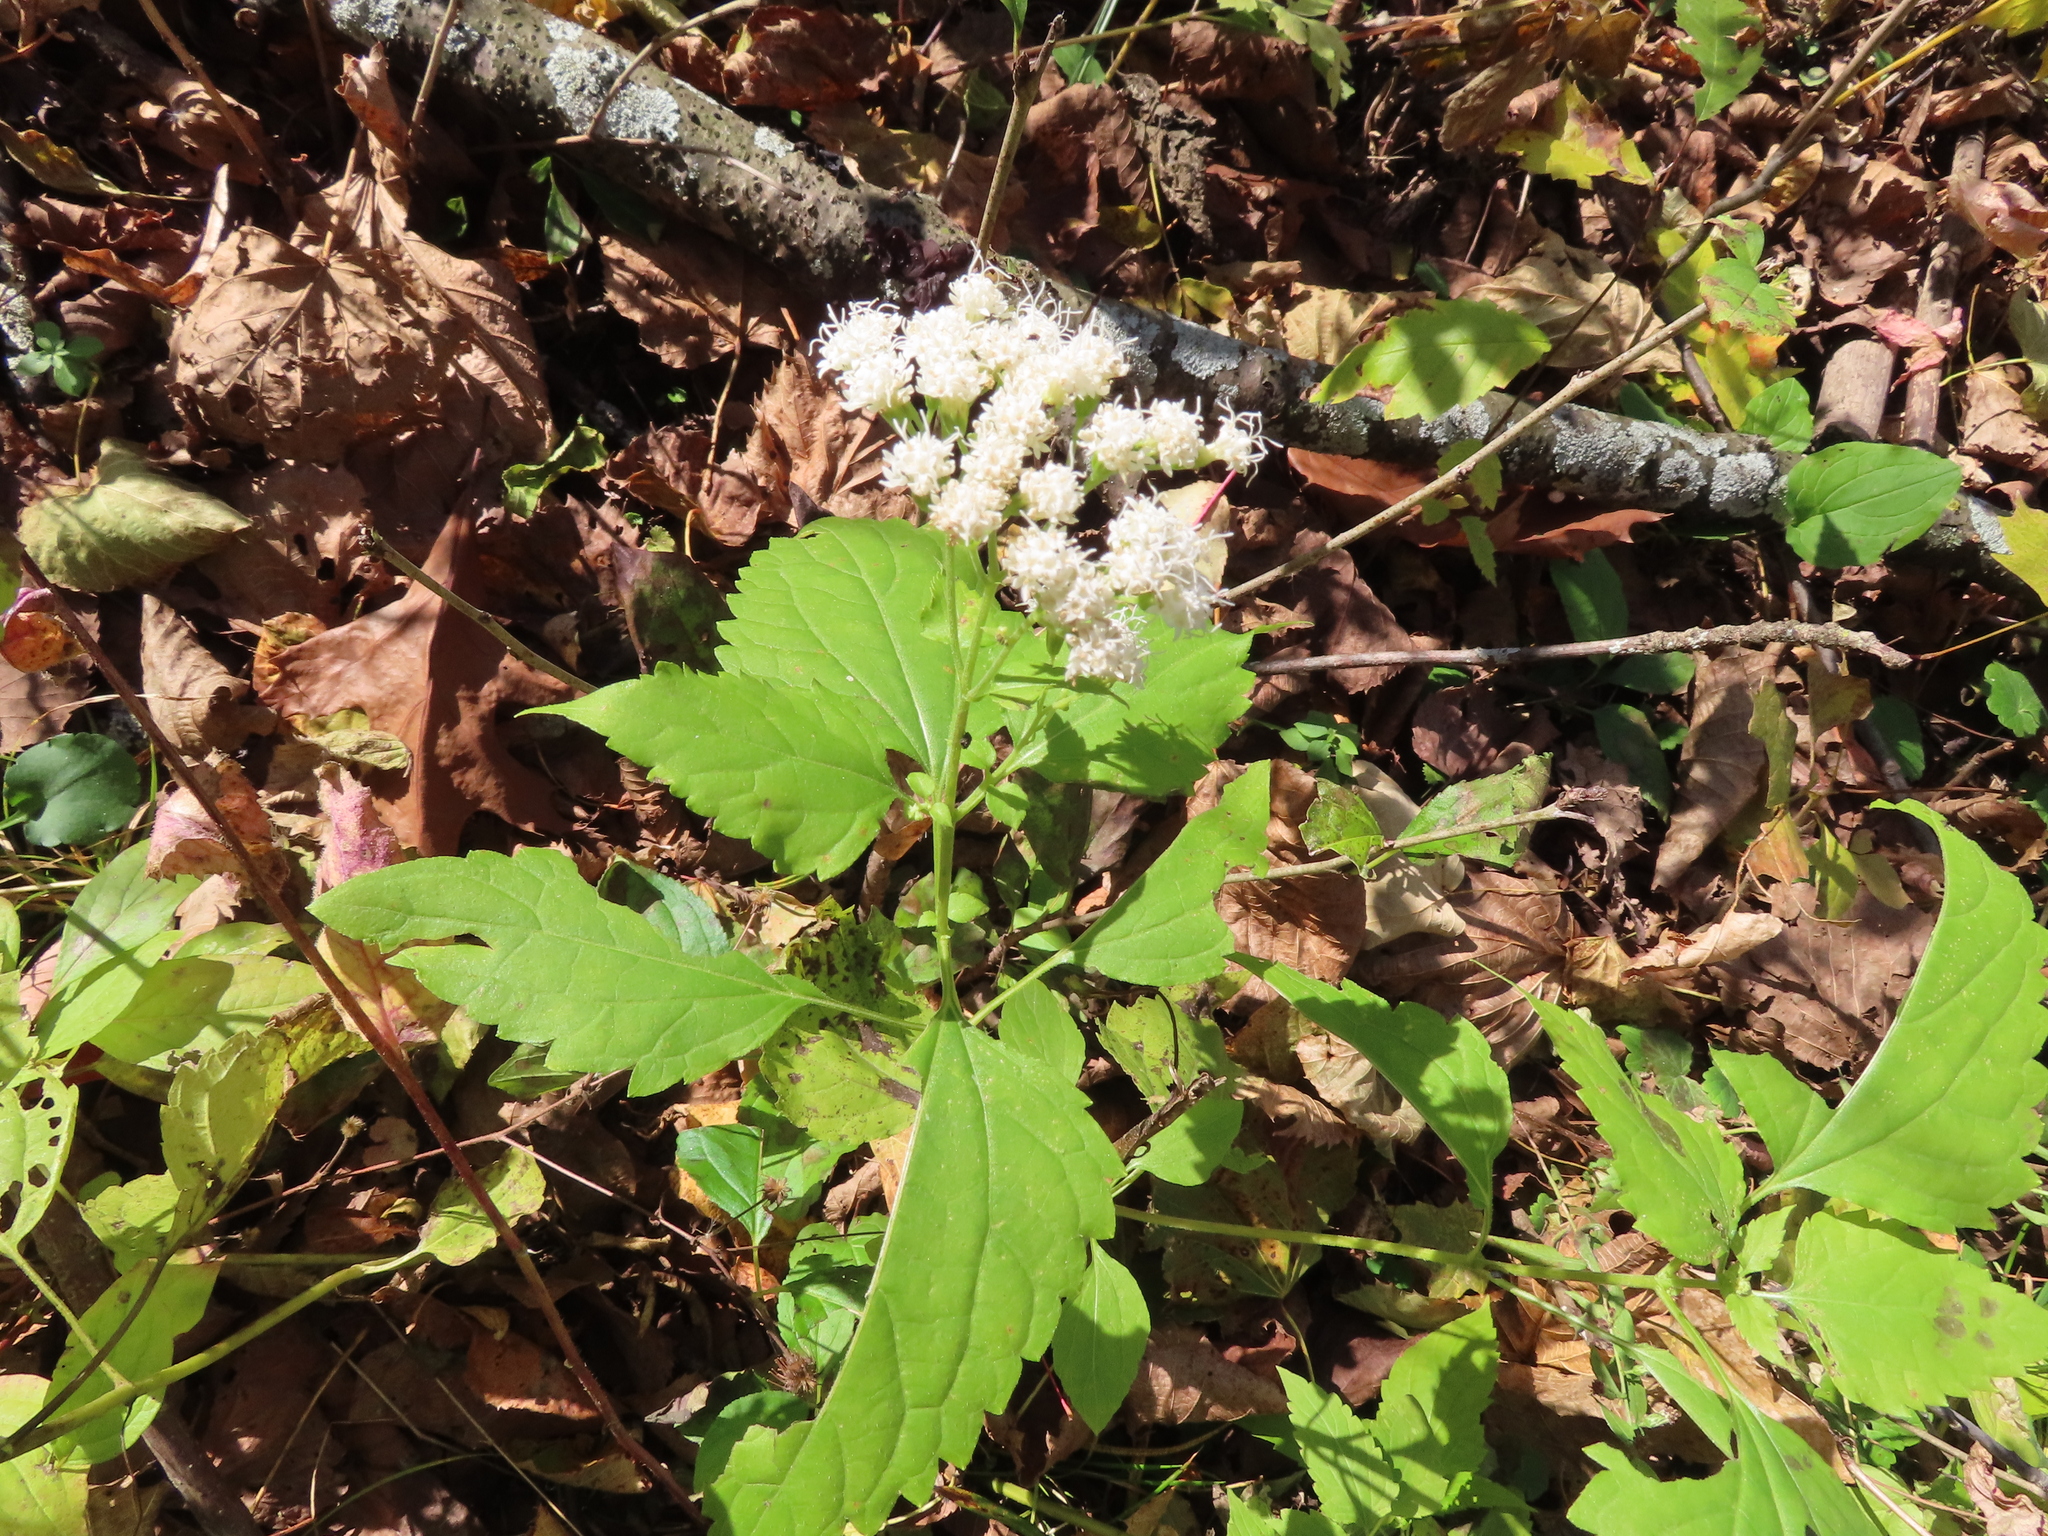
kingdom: Plantae
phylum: Tracheophyta
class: Magnoliopsida
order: Asterales
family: Asteraceae
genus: Ageratina
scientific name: Ageratina altissima
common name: White snakeroot
